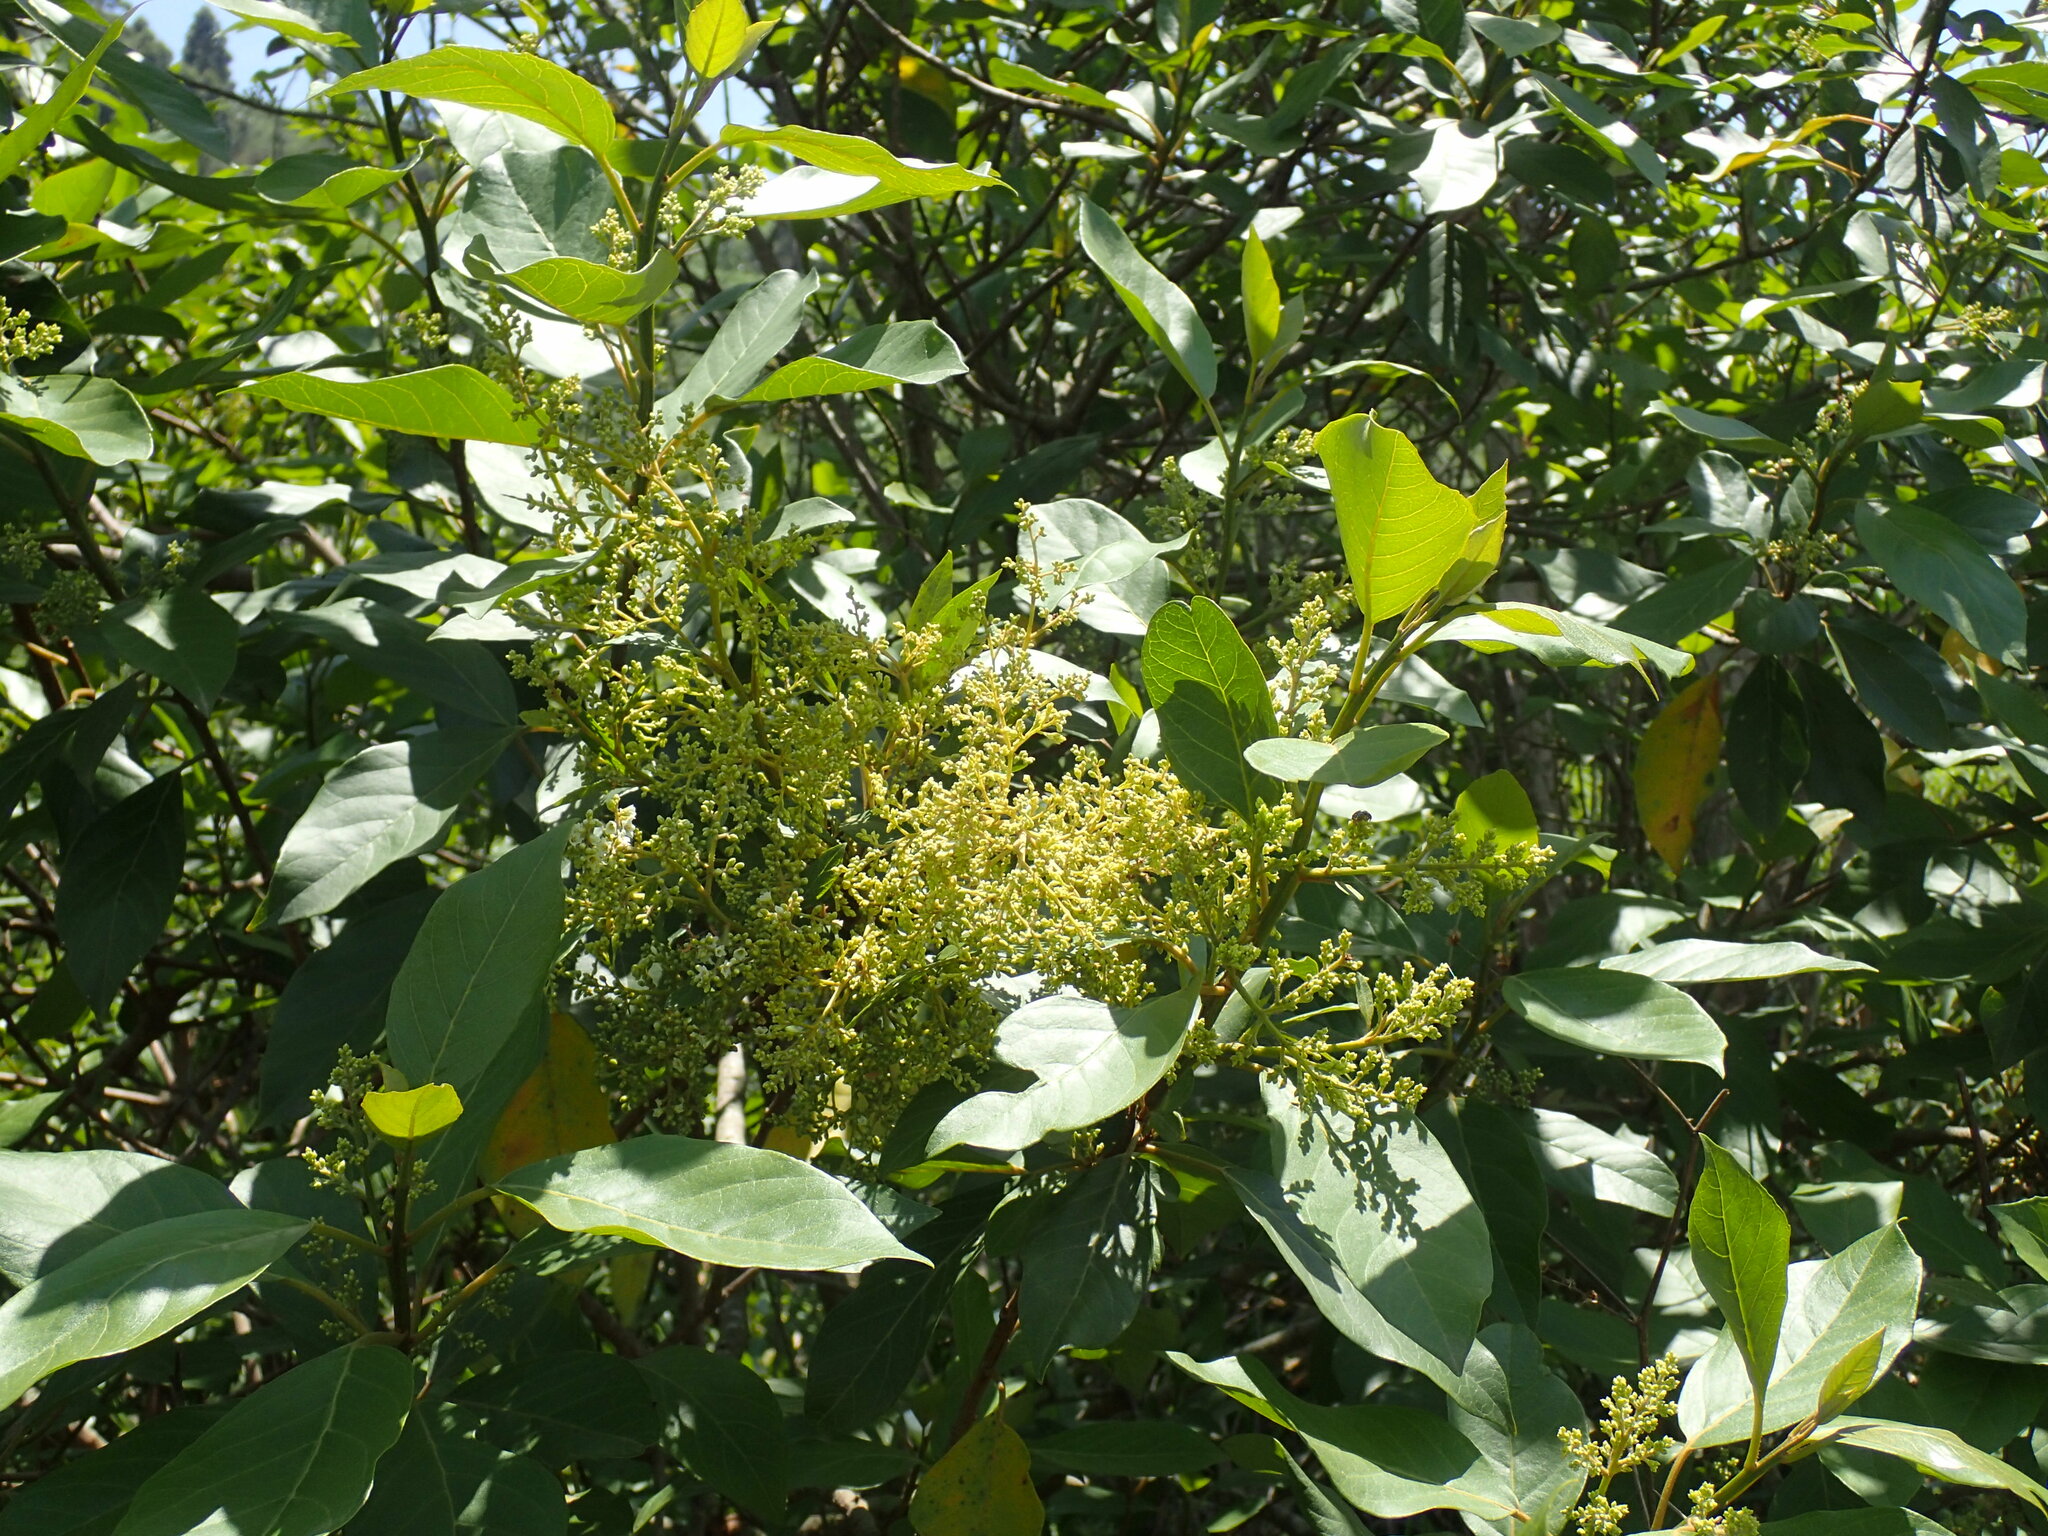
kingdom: Plantae
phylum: Tracheophyta
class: Magnoliopsida
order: Ericales
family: Primulaceae
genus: Maesa
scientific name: Maesa lanceolata
